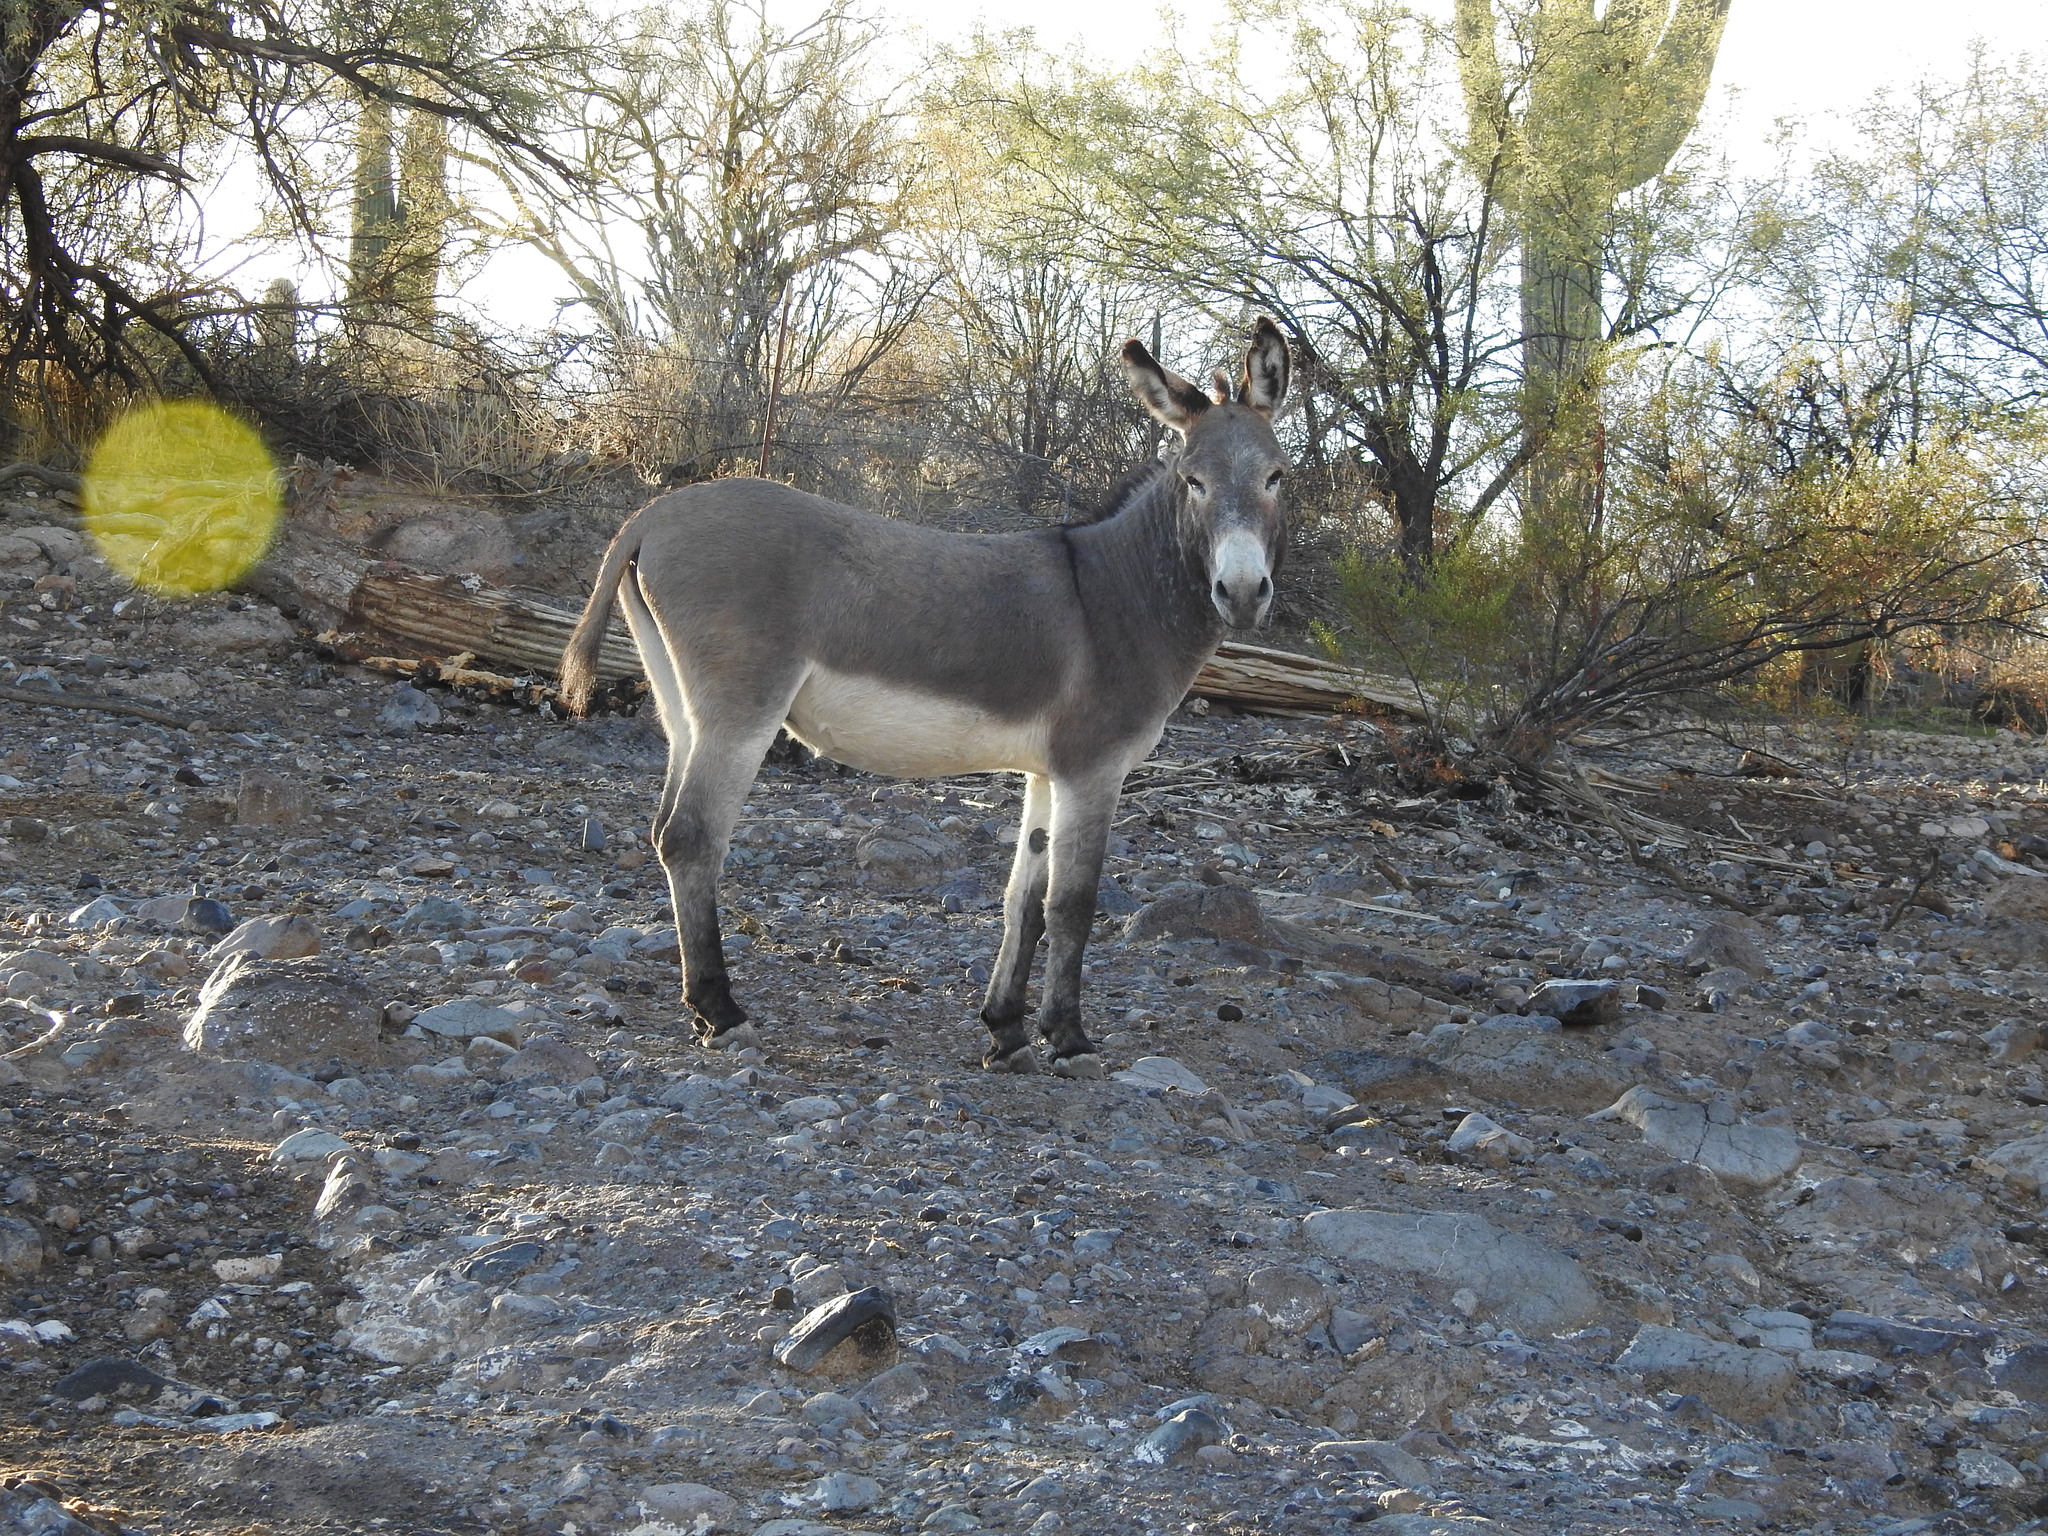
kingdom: Animalia
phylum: Chordata
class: Mammalia
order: Perissodactyla
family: Equidae
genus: Equus
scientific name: Equus asinus
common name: Ass
